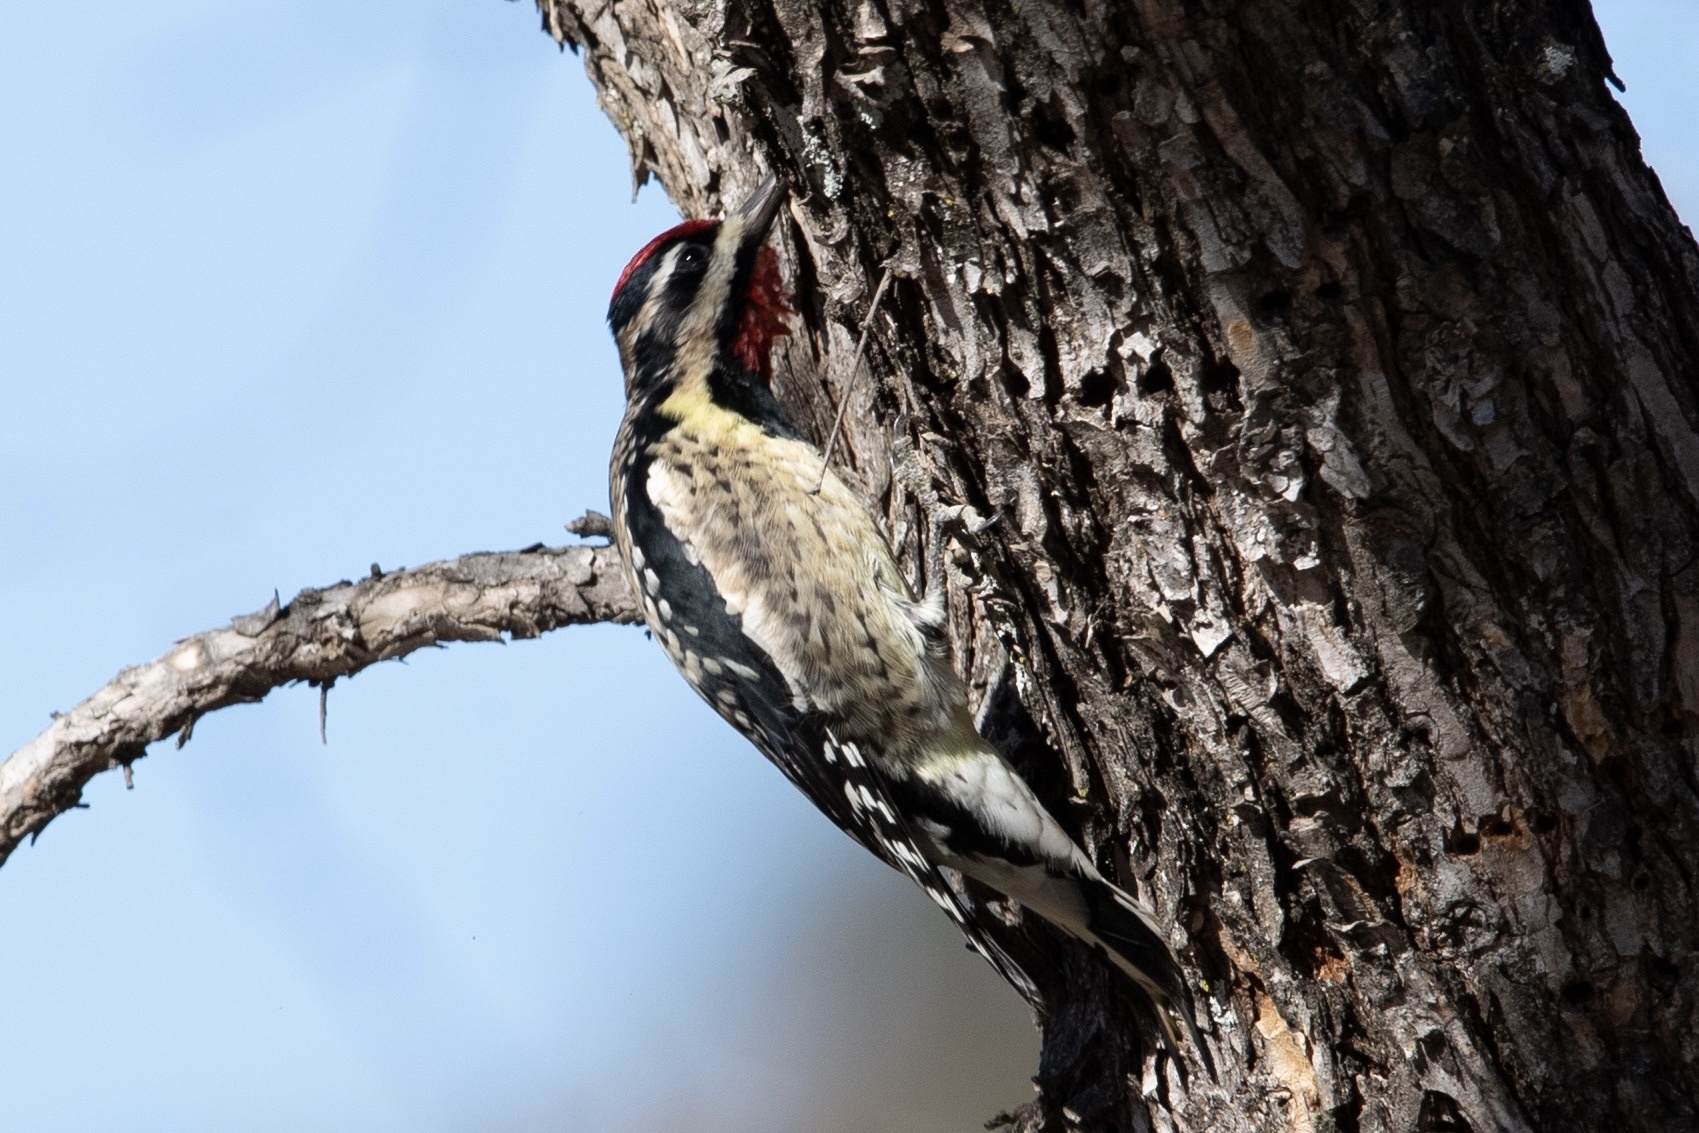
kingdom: Animalia
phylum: Chordata
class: Aves
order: Piciformes
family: Picidae
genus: Sphyrapicus
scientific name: Sphyrapicus varius
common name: Yellow-bellied sapsucker
